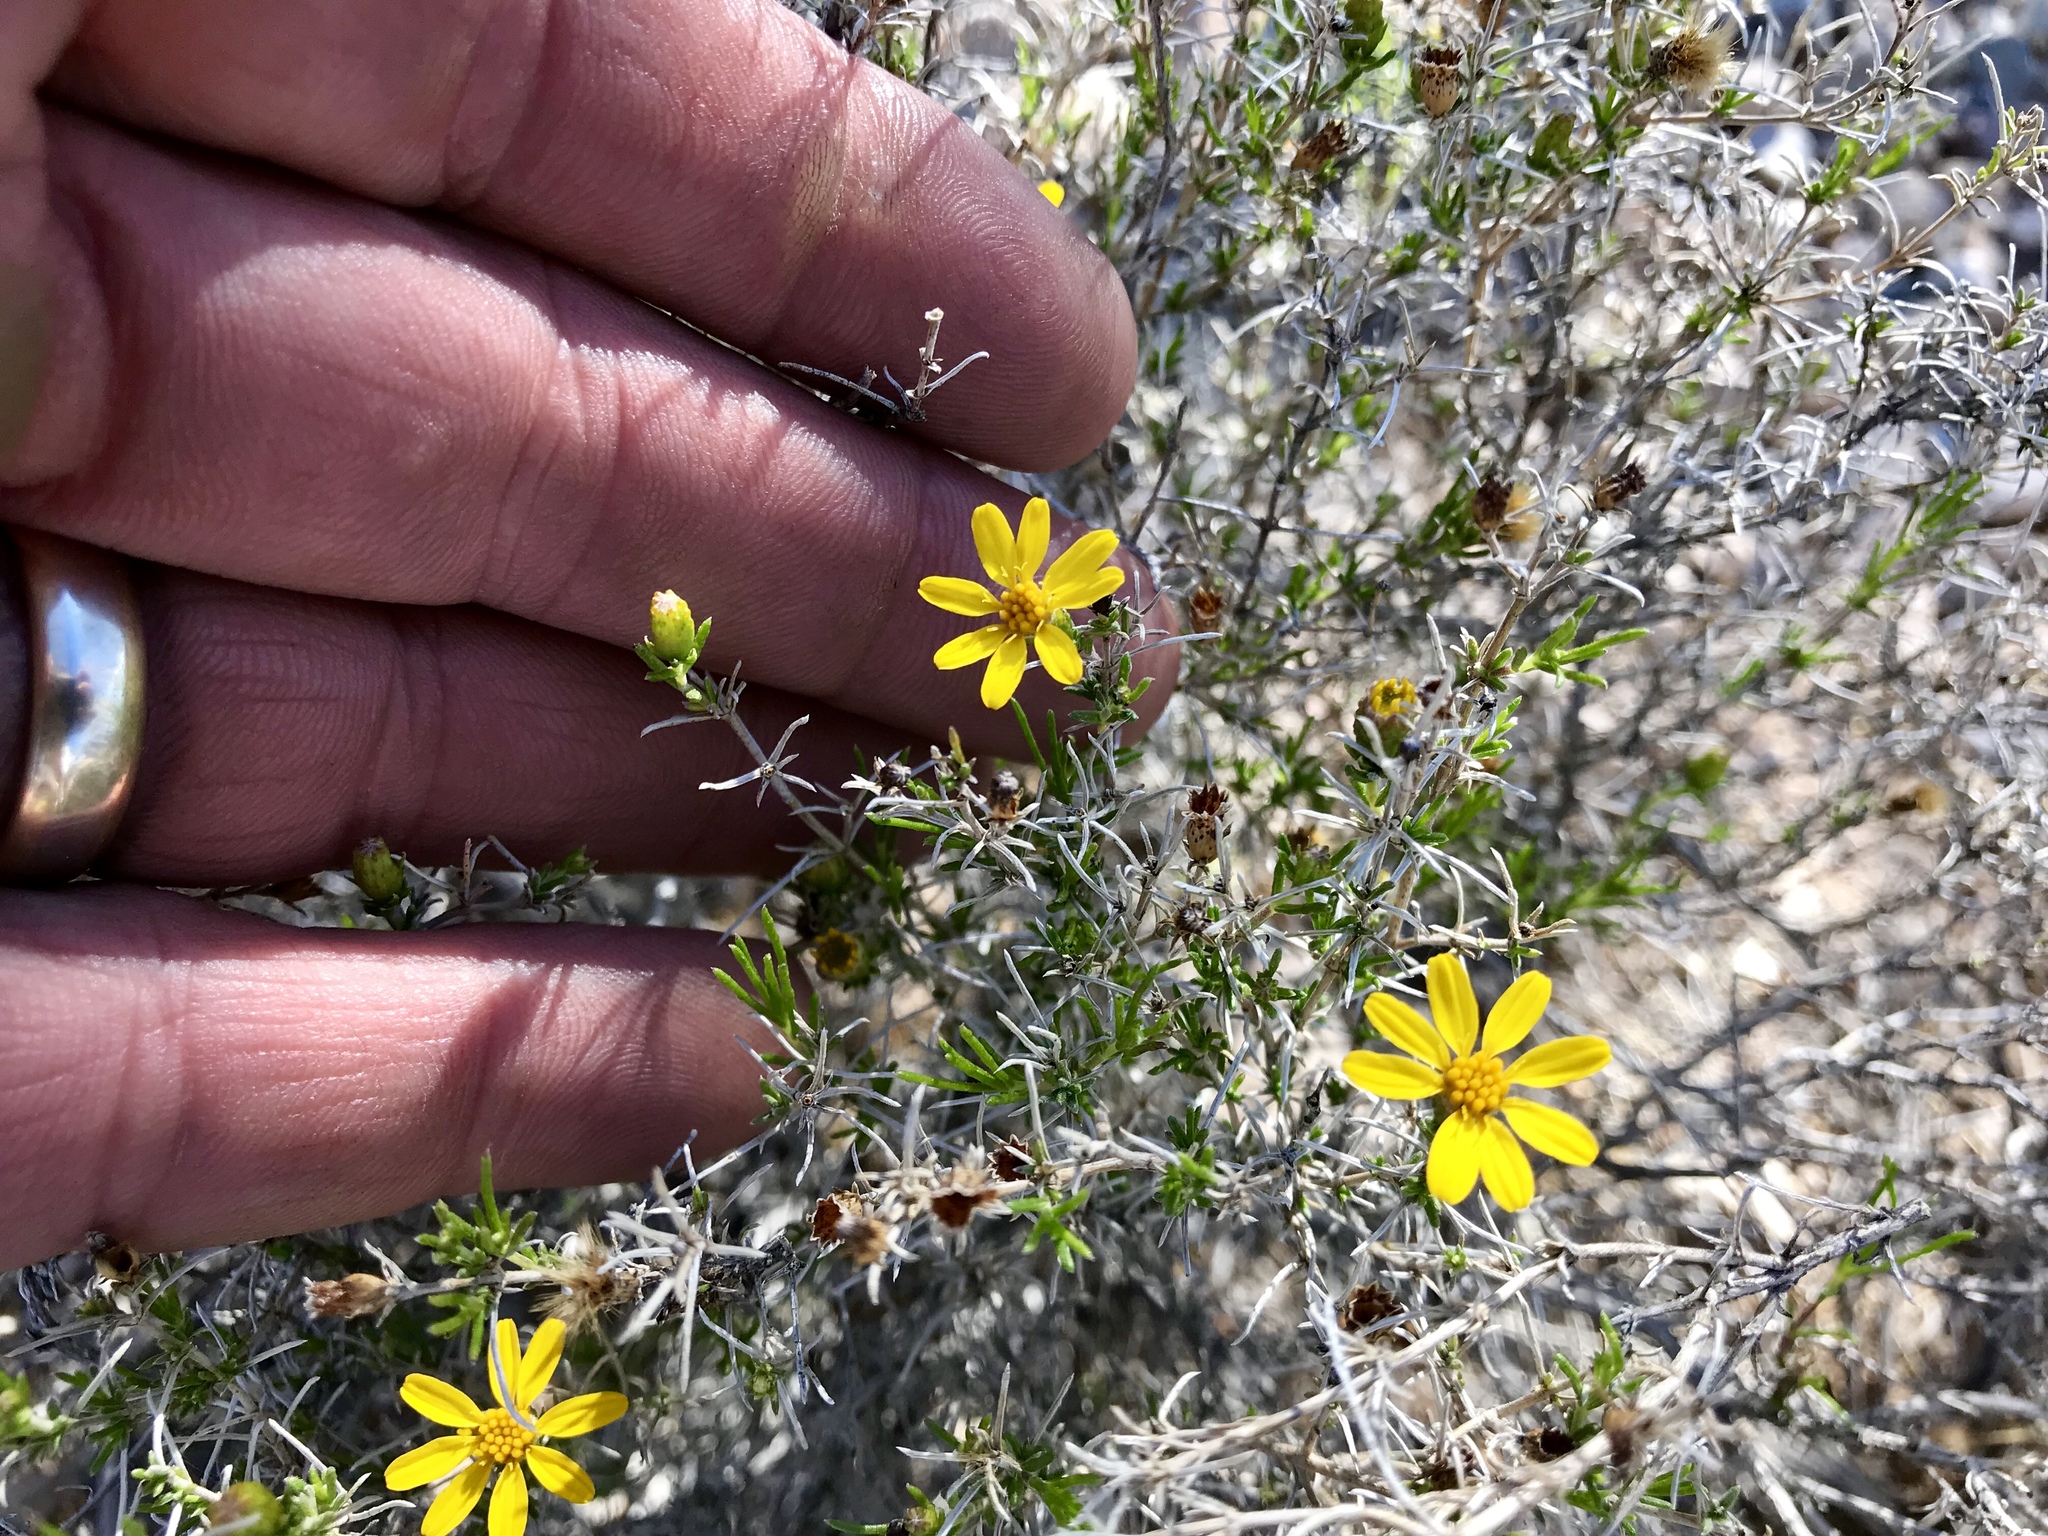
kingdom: Plantae
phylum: Tracheophyta
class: Magnoliopsida
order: Asterales
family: Asteraceae
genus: Thymophylla
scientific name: Thymophylla acerosa
